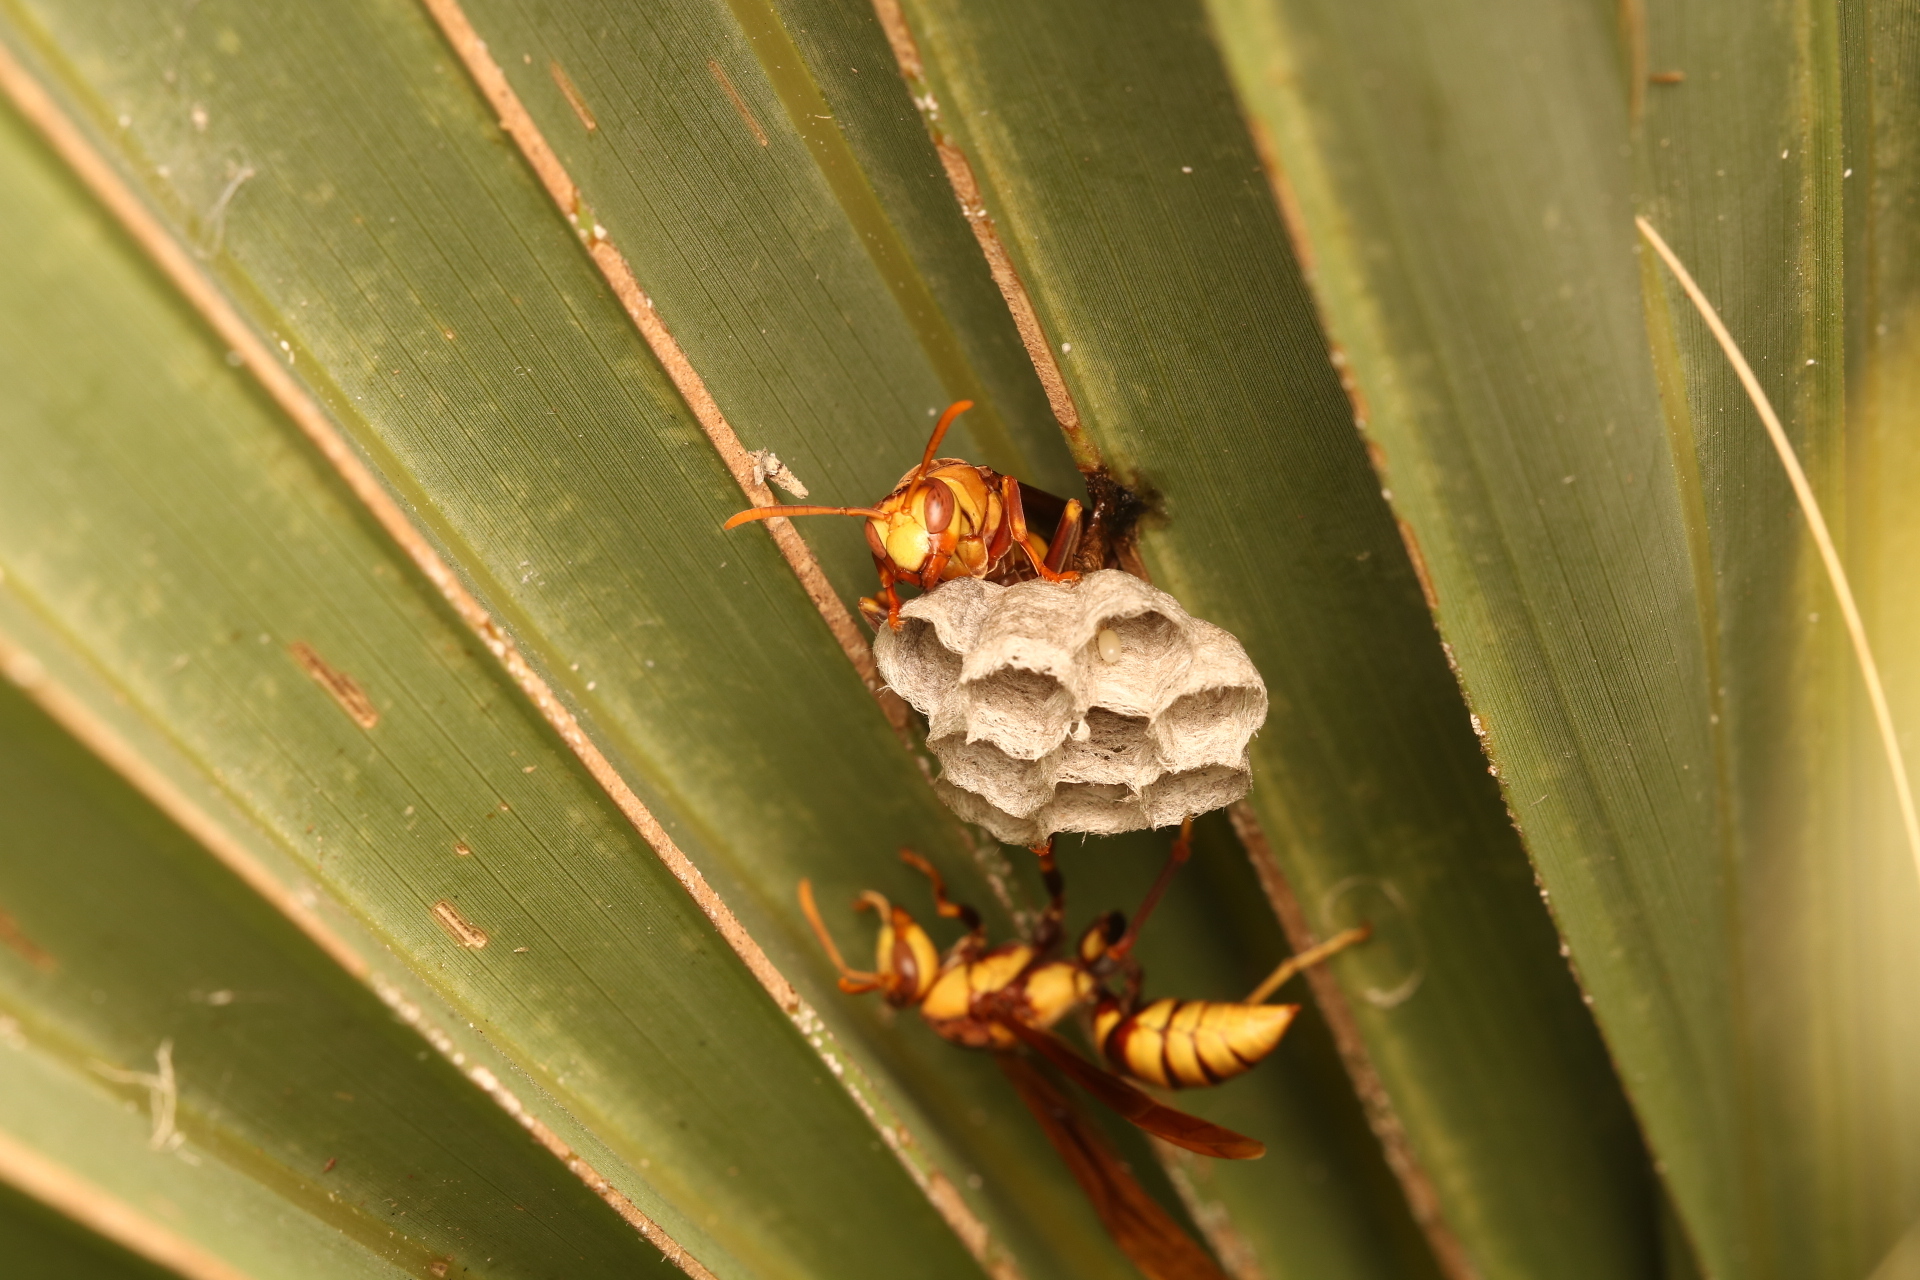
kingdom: Animalia
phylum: Arthropoda
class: Insecta
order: Hymenoptera
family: Eumenidae
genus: Polistes
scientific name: Polistes major
